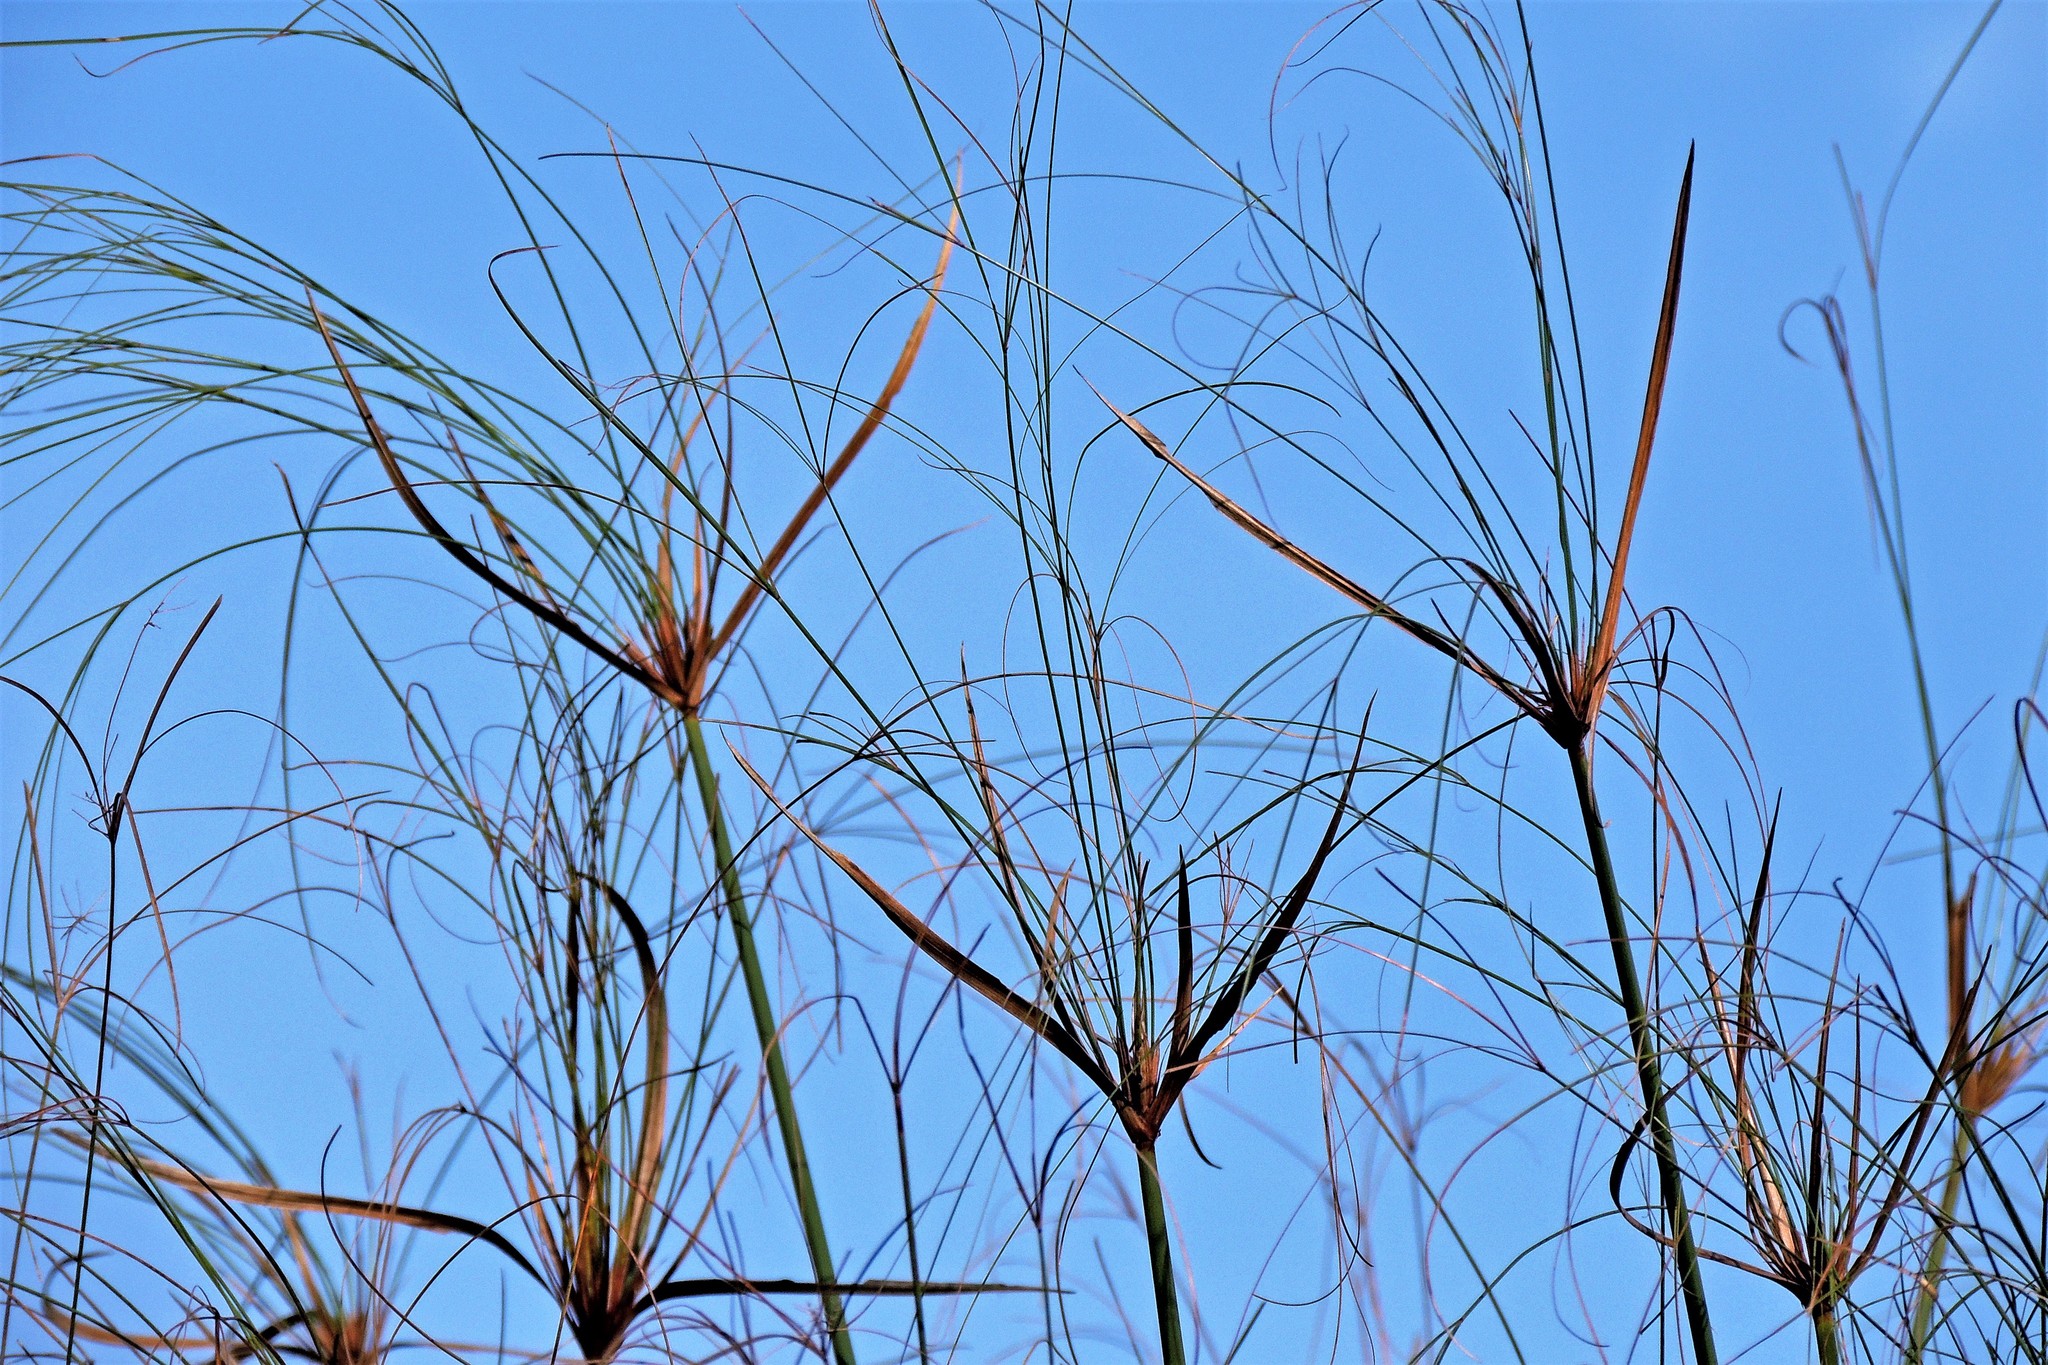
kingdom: Plantae
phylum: Tracheophyta
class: Liliopsida
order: Poales
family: Cyperaceae
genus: Cyperus
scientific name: Cyperus giganteus
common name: Giant flat sedge
